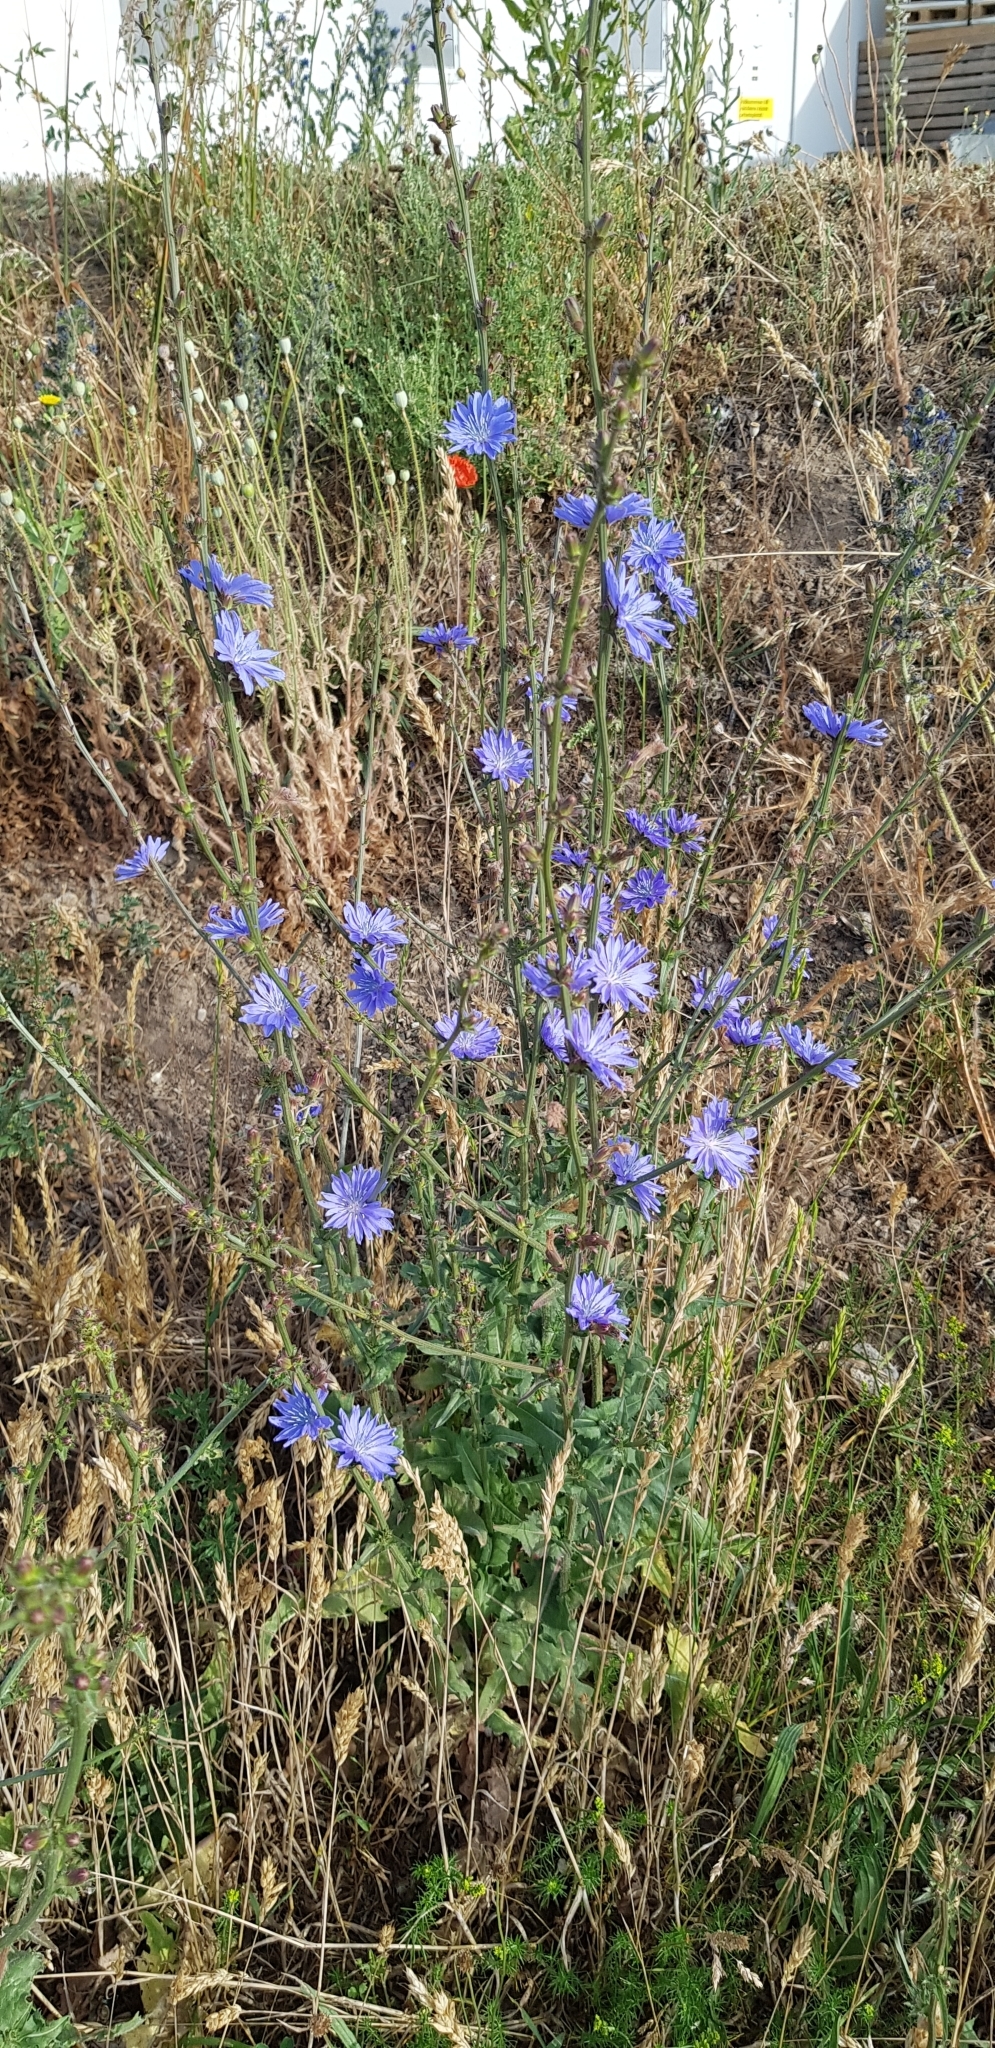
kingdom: Plantae
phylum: Tracheophyta
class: Magnoliopsida
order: Asterales
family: Asteraceae
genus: Cichorium
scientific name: Cichorium intybus
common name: Chicory
